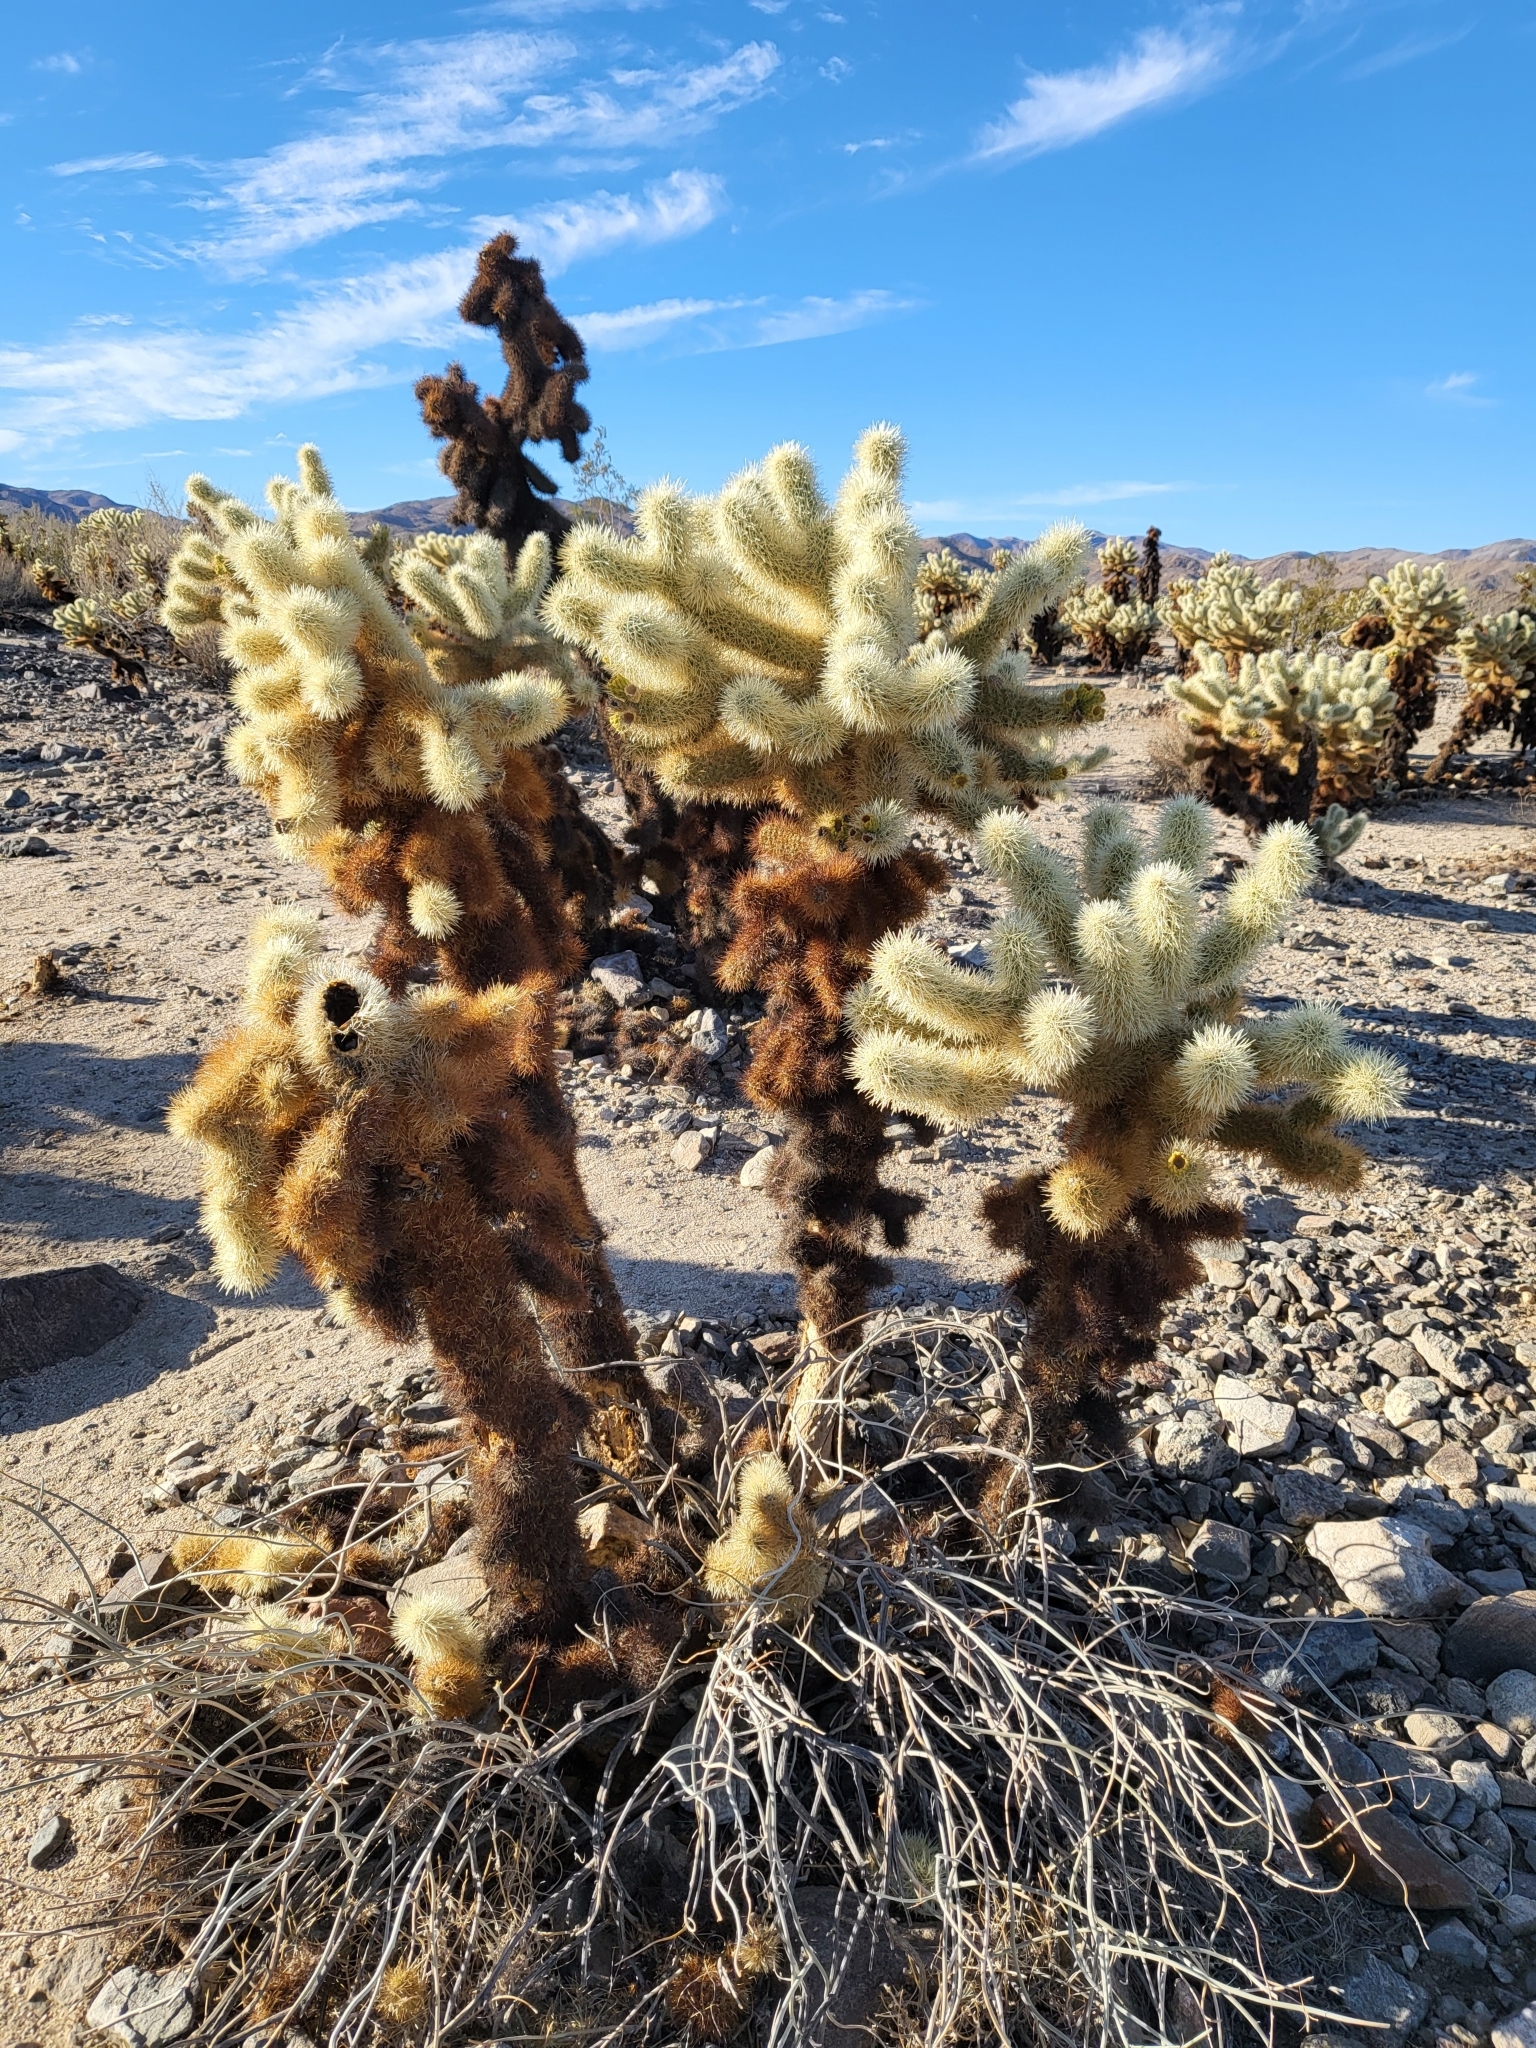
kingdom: Plantae
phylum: Tracheophyta
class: Magnoliopsida
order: Caryophyllales
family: Cactaceae
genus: Cylindropuntia
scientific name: Cylindropuntia fosbergii
